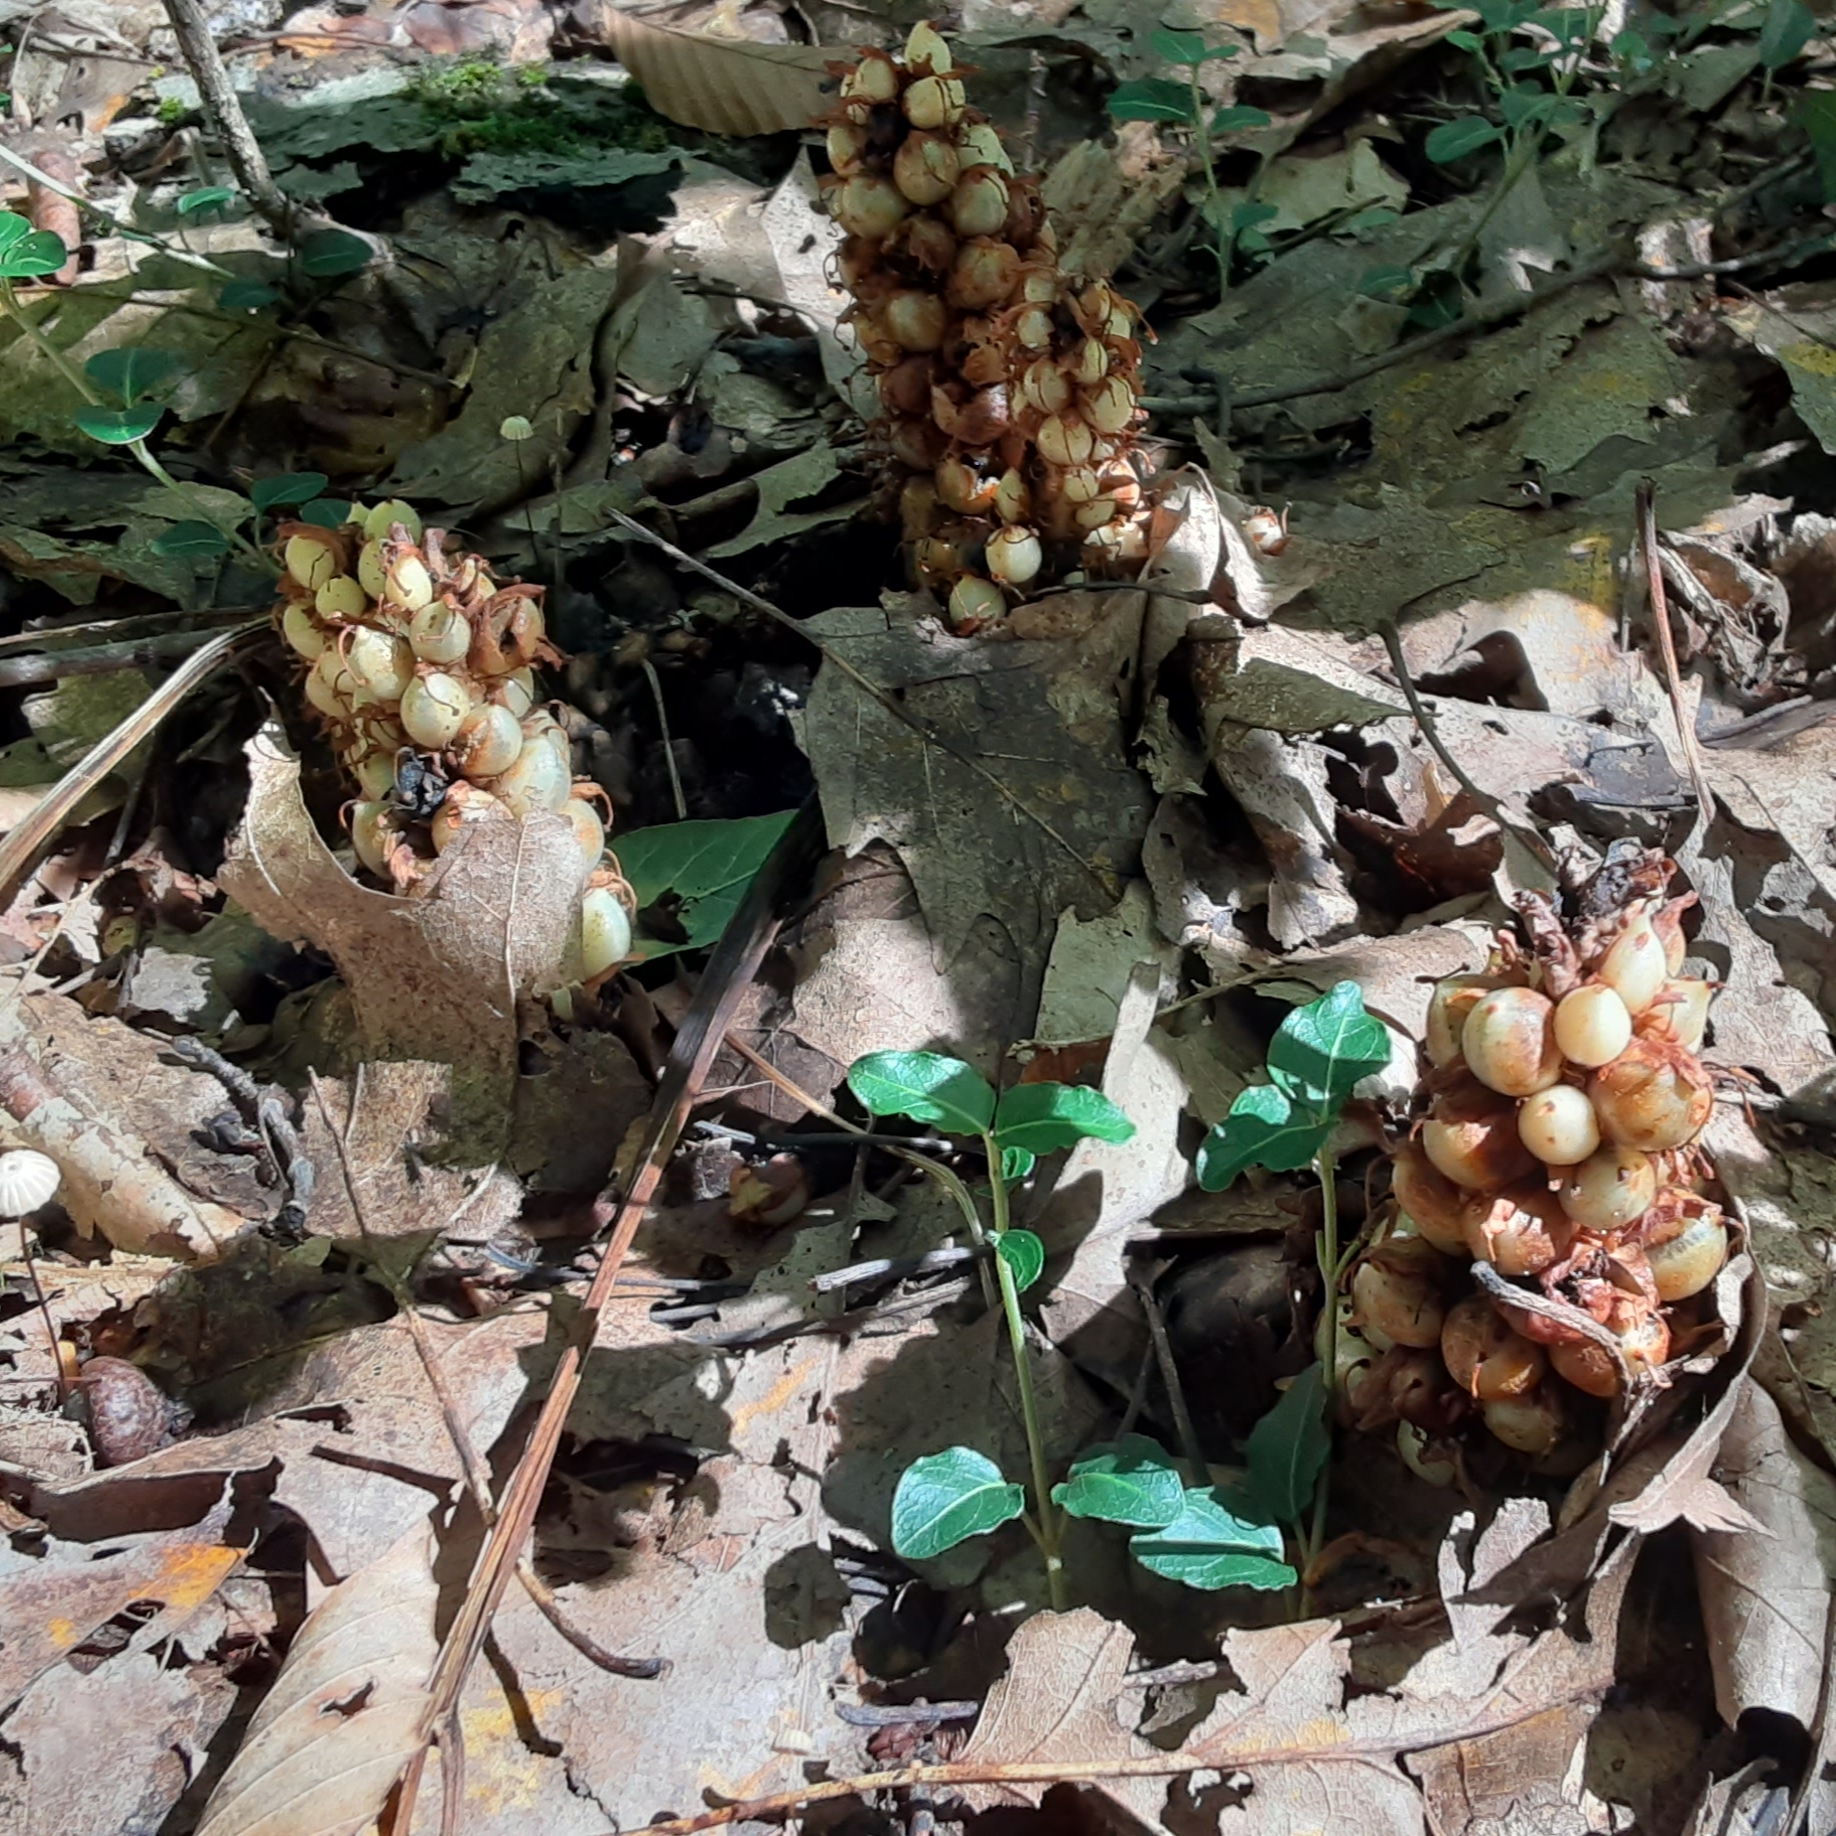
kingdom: Plantae
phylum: Tracheophyta
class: Magnoliopsida
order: Lamiales
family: Orobanchaceae
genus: Conopholis
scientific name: Conopholis americana
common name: American cancer-root
